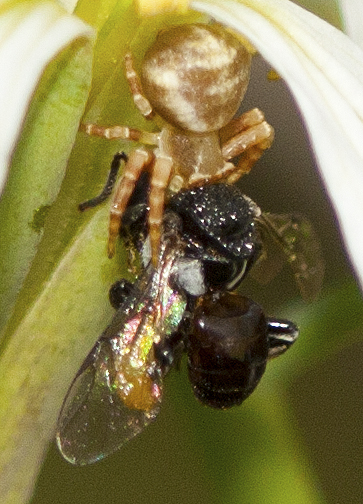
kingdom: Animalia
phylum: Arthropoda
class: Arachnida
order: Araneae
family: Thomisidae
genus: Thomisus
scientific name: Thomisus spectabilis
